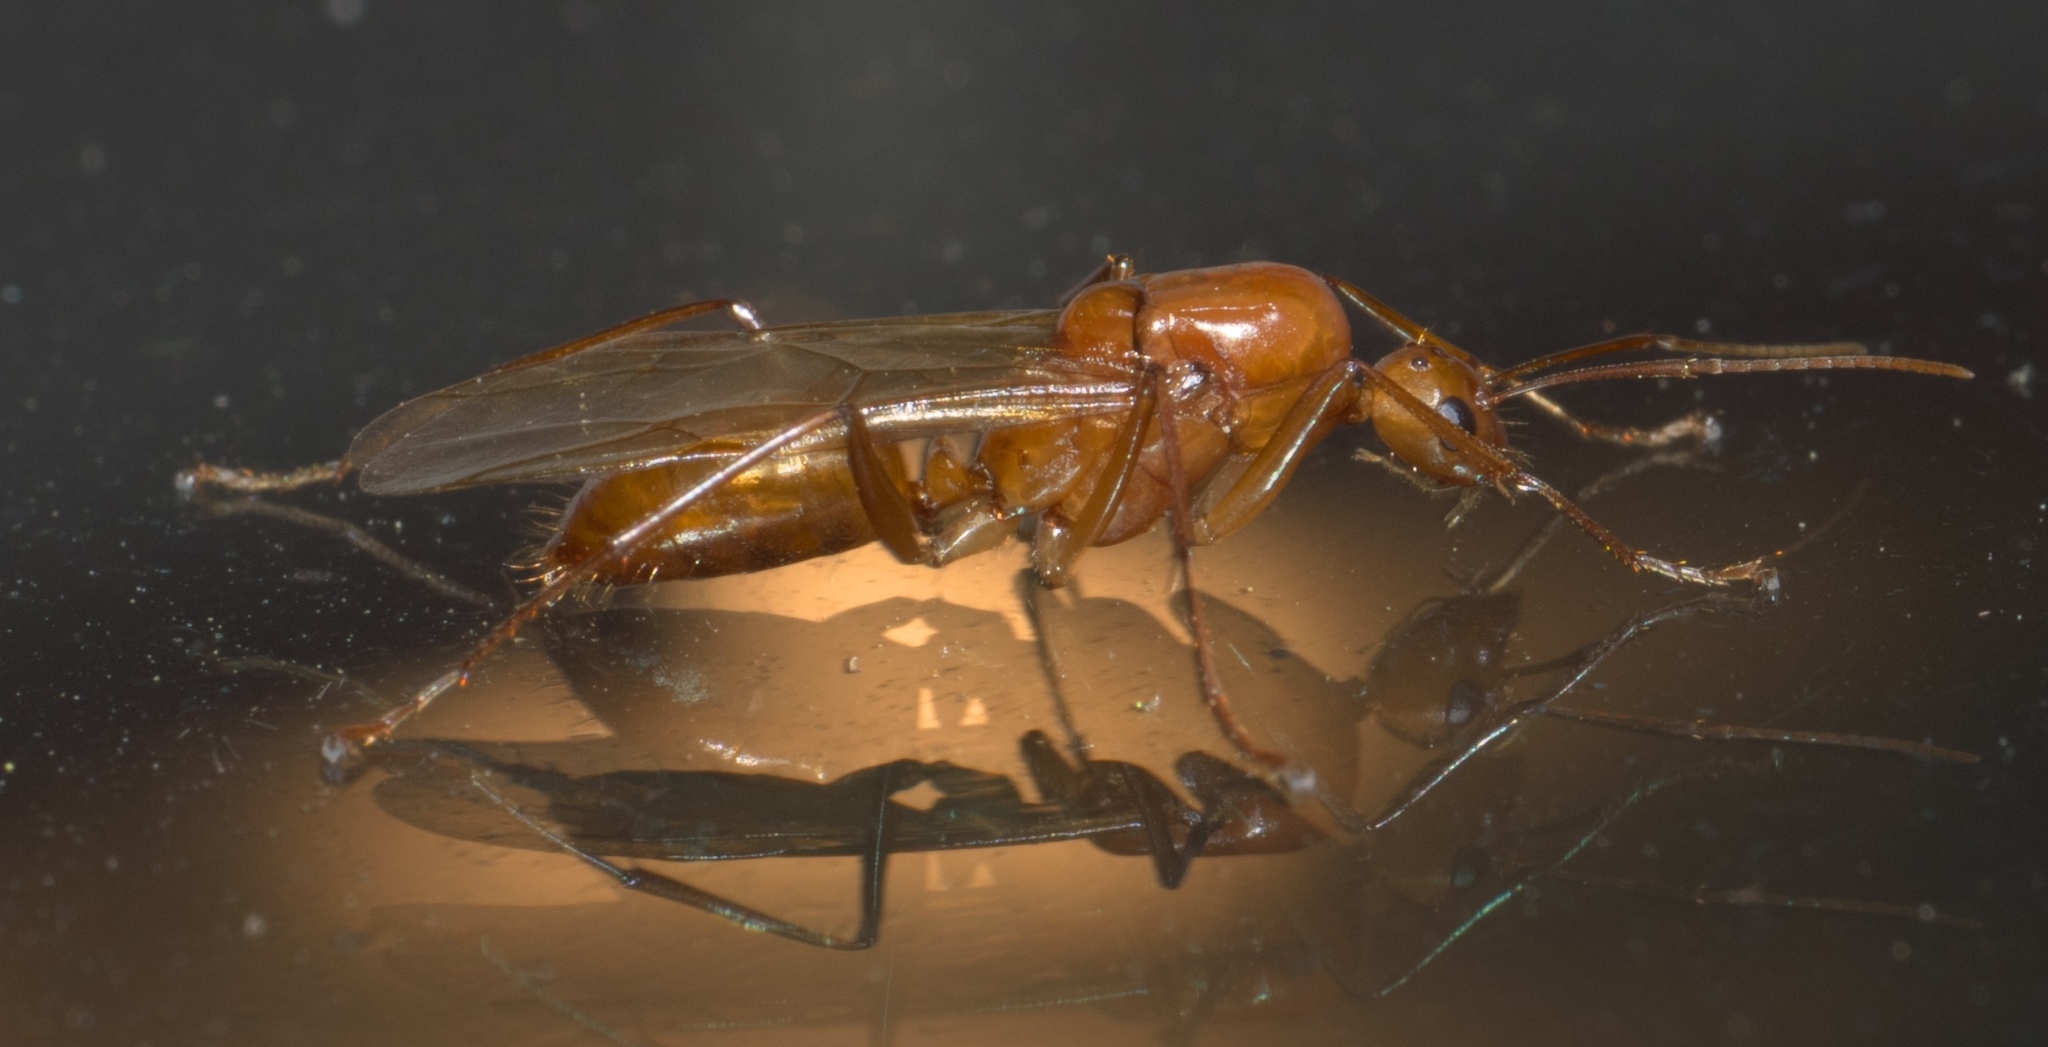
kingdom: Animalia
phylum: Arthropoda
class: Insecta
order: Hymenoptera
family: Formicidae
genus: Camponotus
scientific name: Camponotus castaneus
